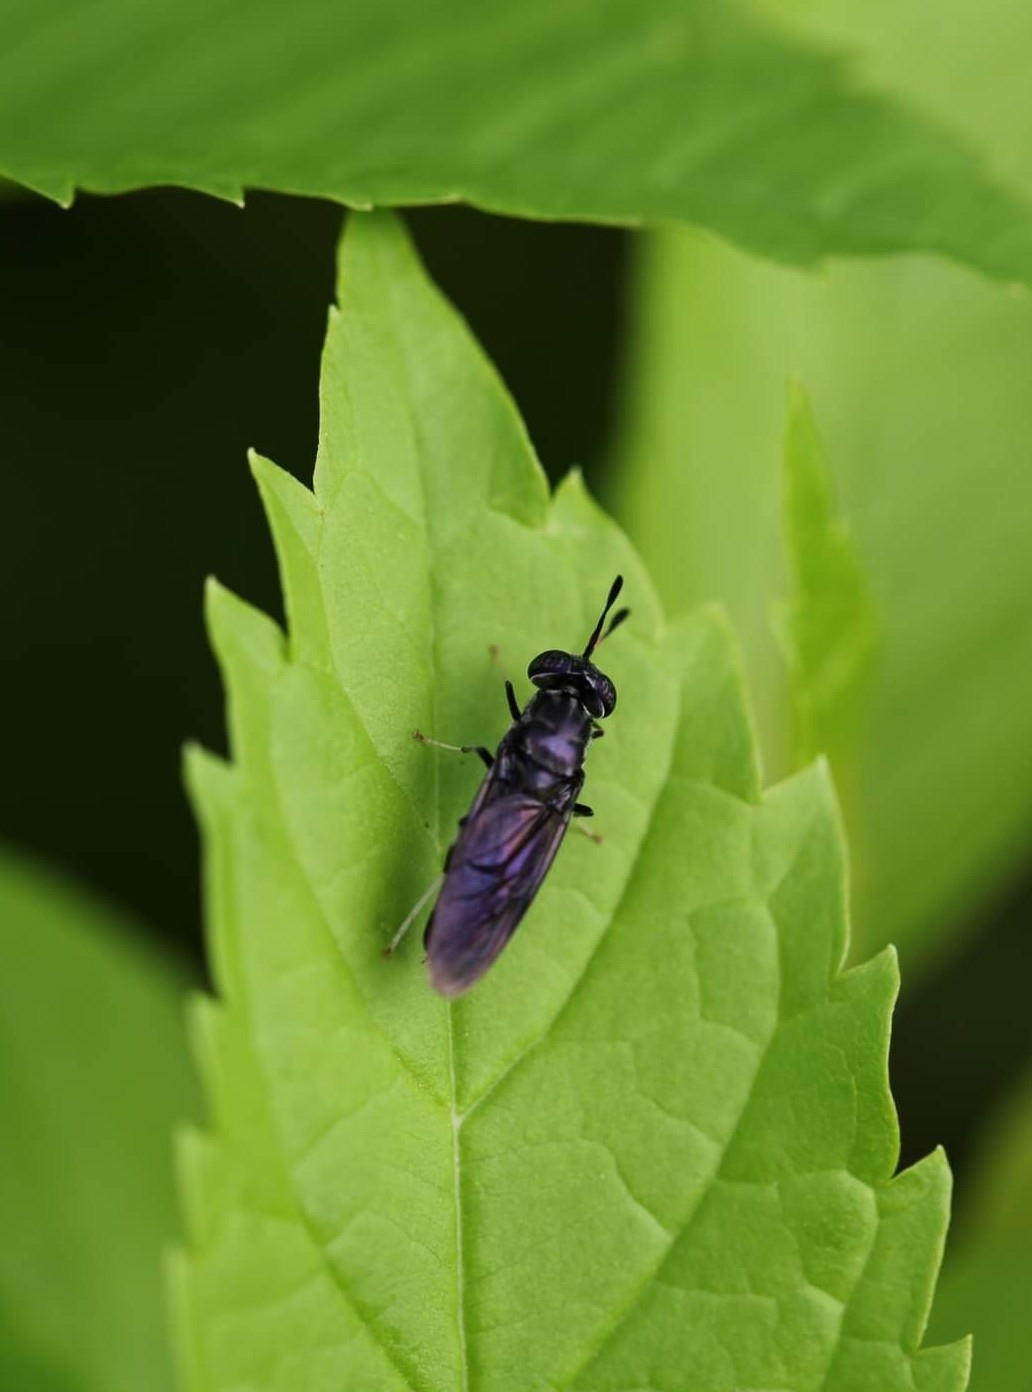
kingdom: Animalia
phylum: Arthropoda
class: Insecta
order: Diptera
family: Stratiomyidae
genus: Hermetia
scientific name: Hermetia illucens
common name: Black soldier fly
